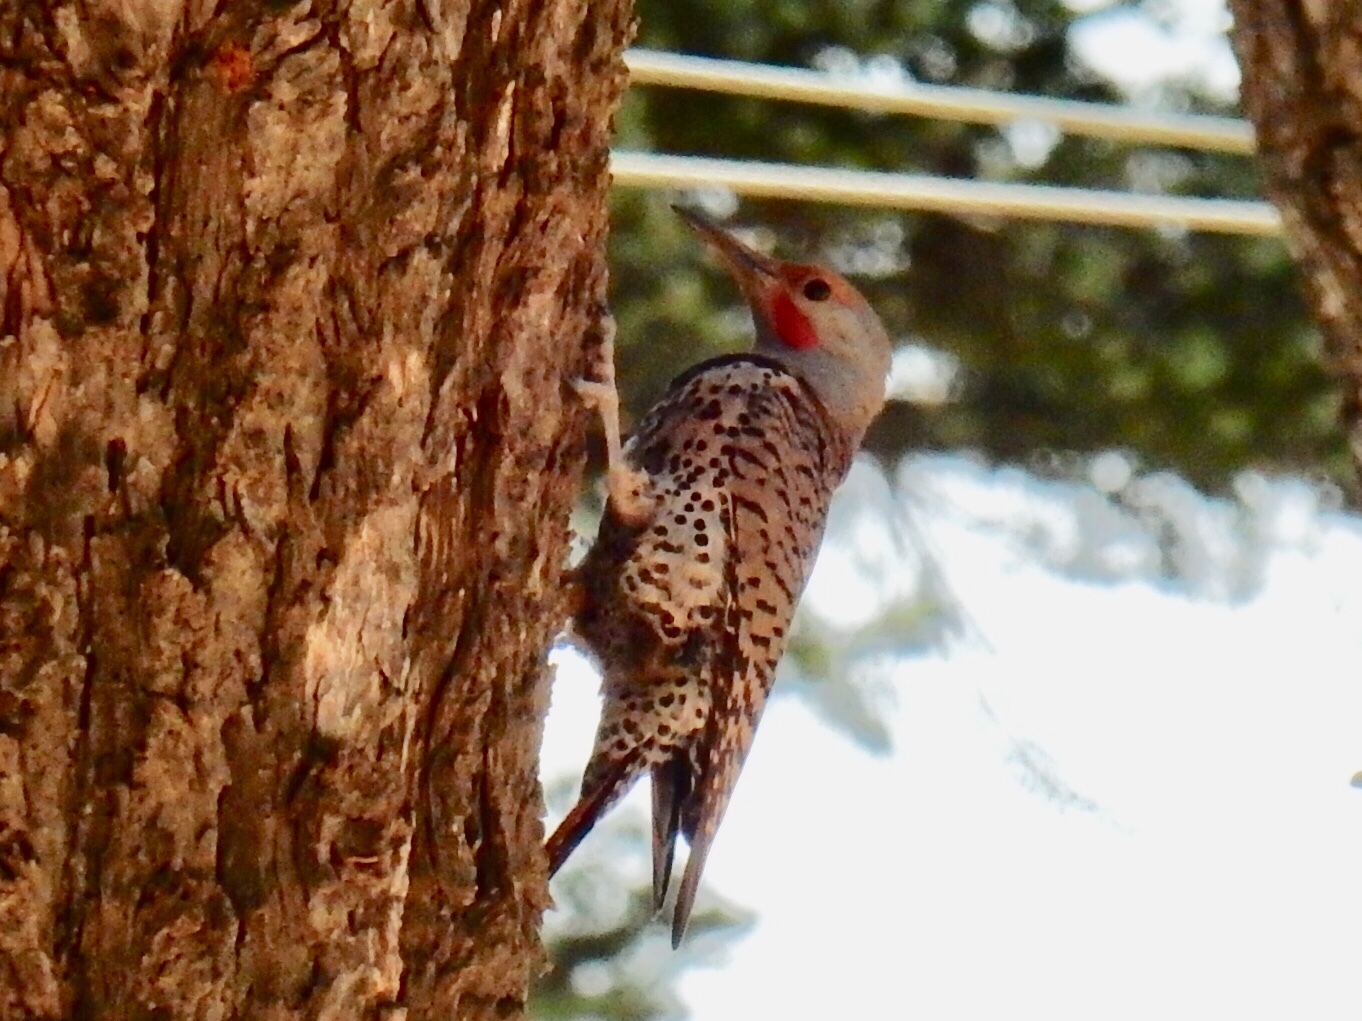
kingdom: Animalia
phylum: Chordata
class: Aves
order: Piciformes
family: Picidae
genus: Colaptes
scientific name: Colaptes auratus
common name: Northern flicker
